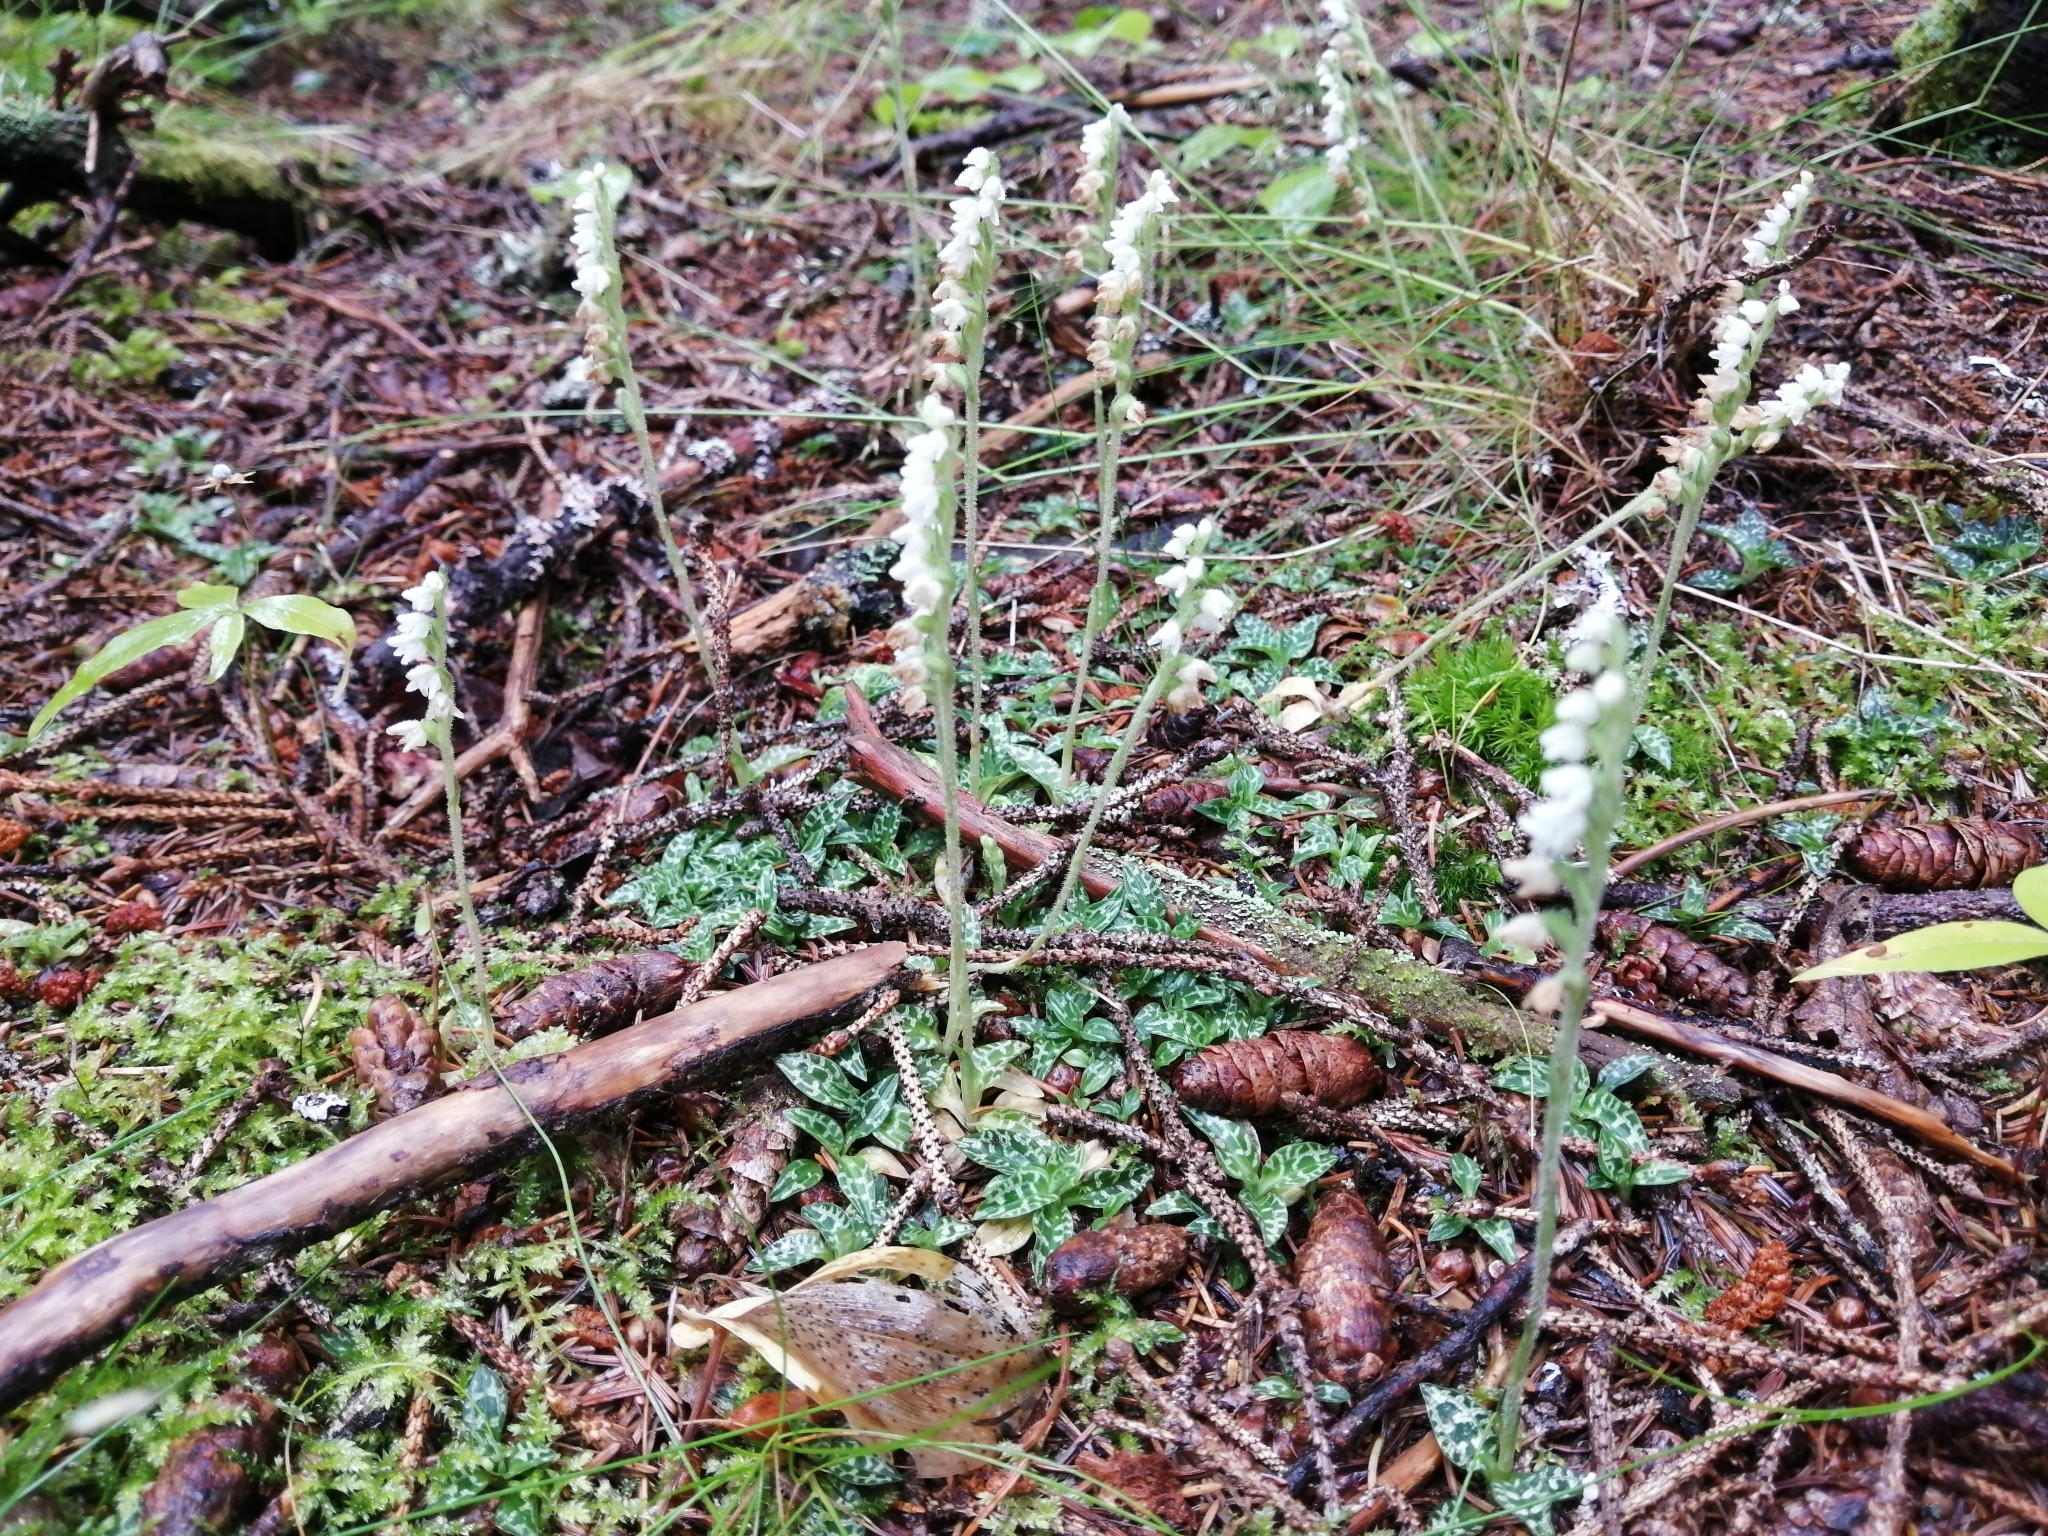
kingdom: Plantae
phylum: Tracheophyta
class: Liliopsida
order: Asparagales
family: Orchidaceae
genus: Goodyera
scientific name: Goodyera repens
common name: Creeping lady's-tresses
